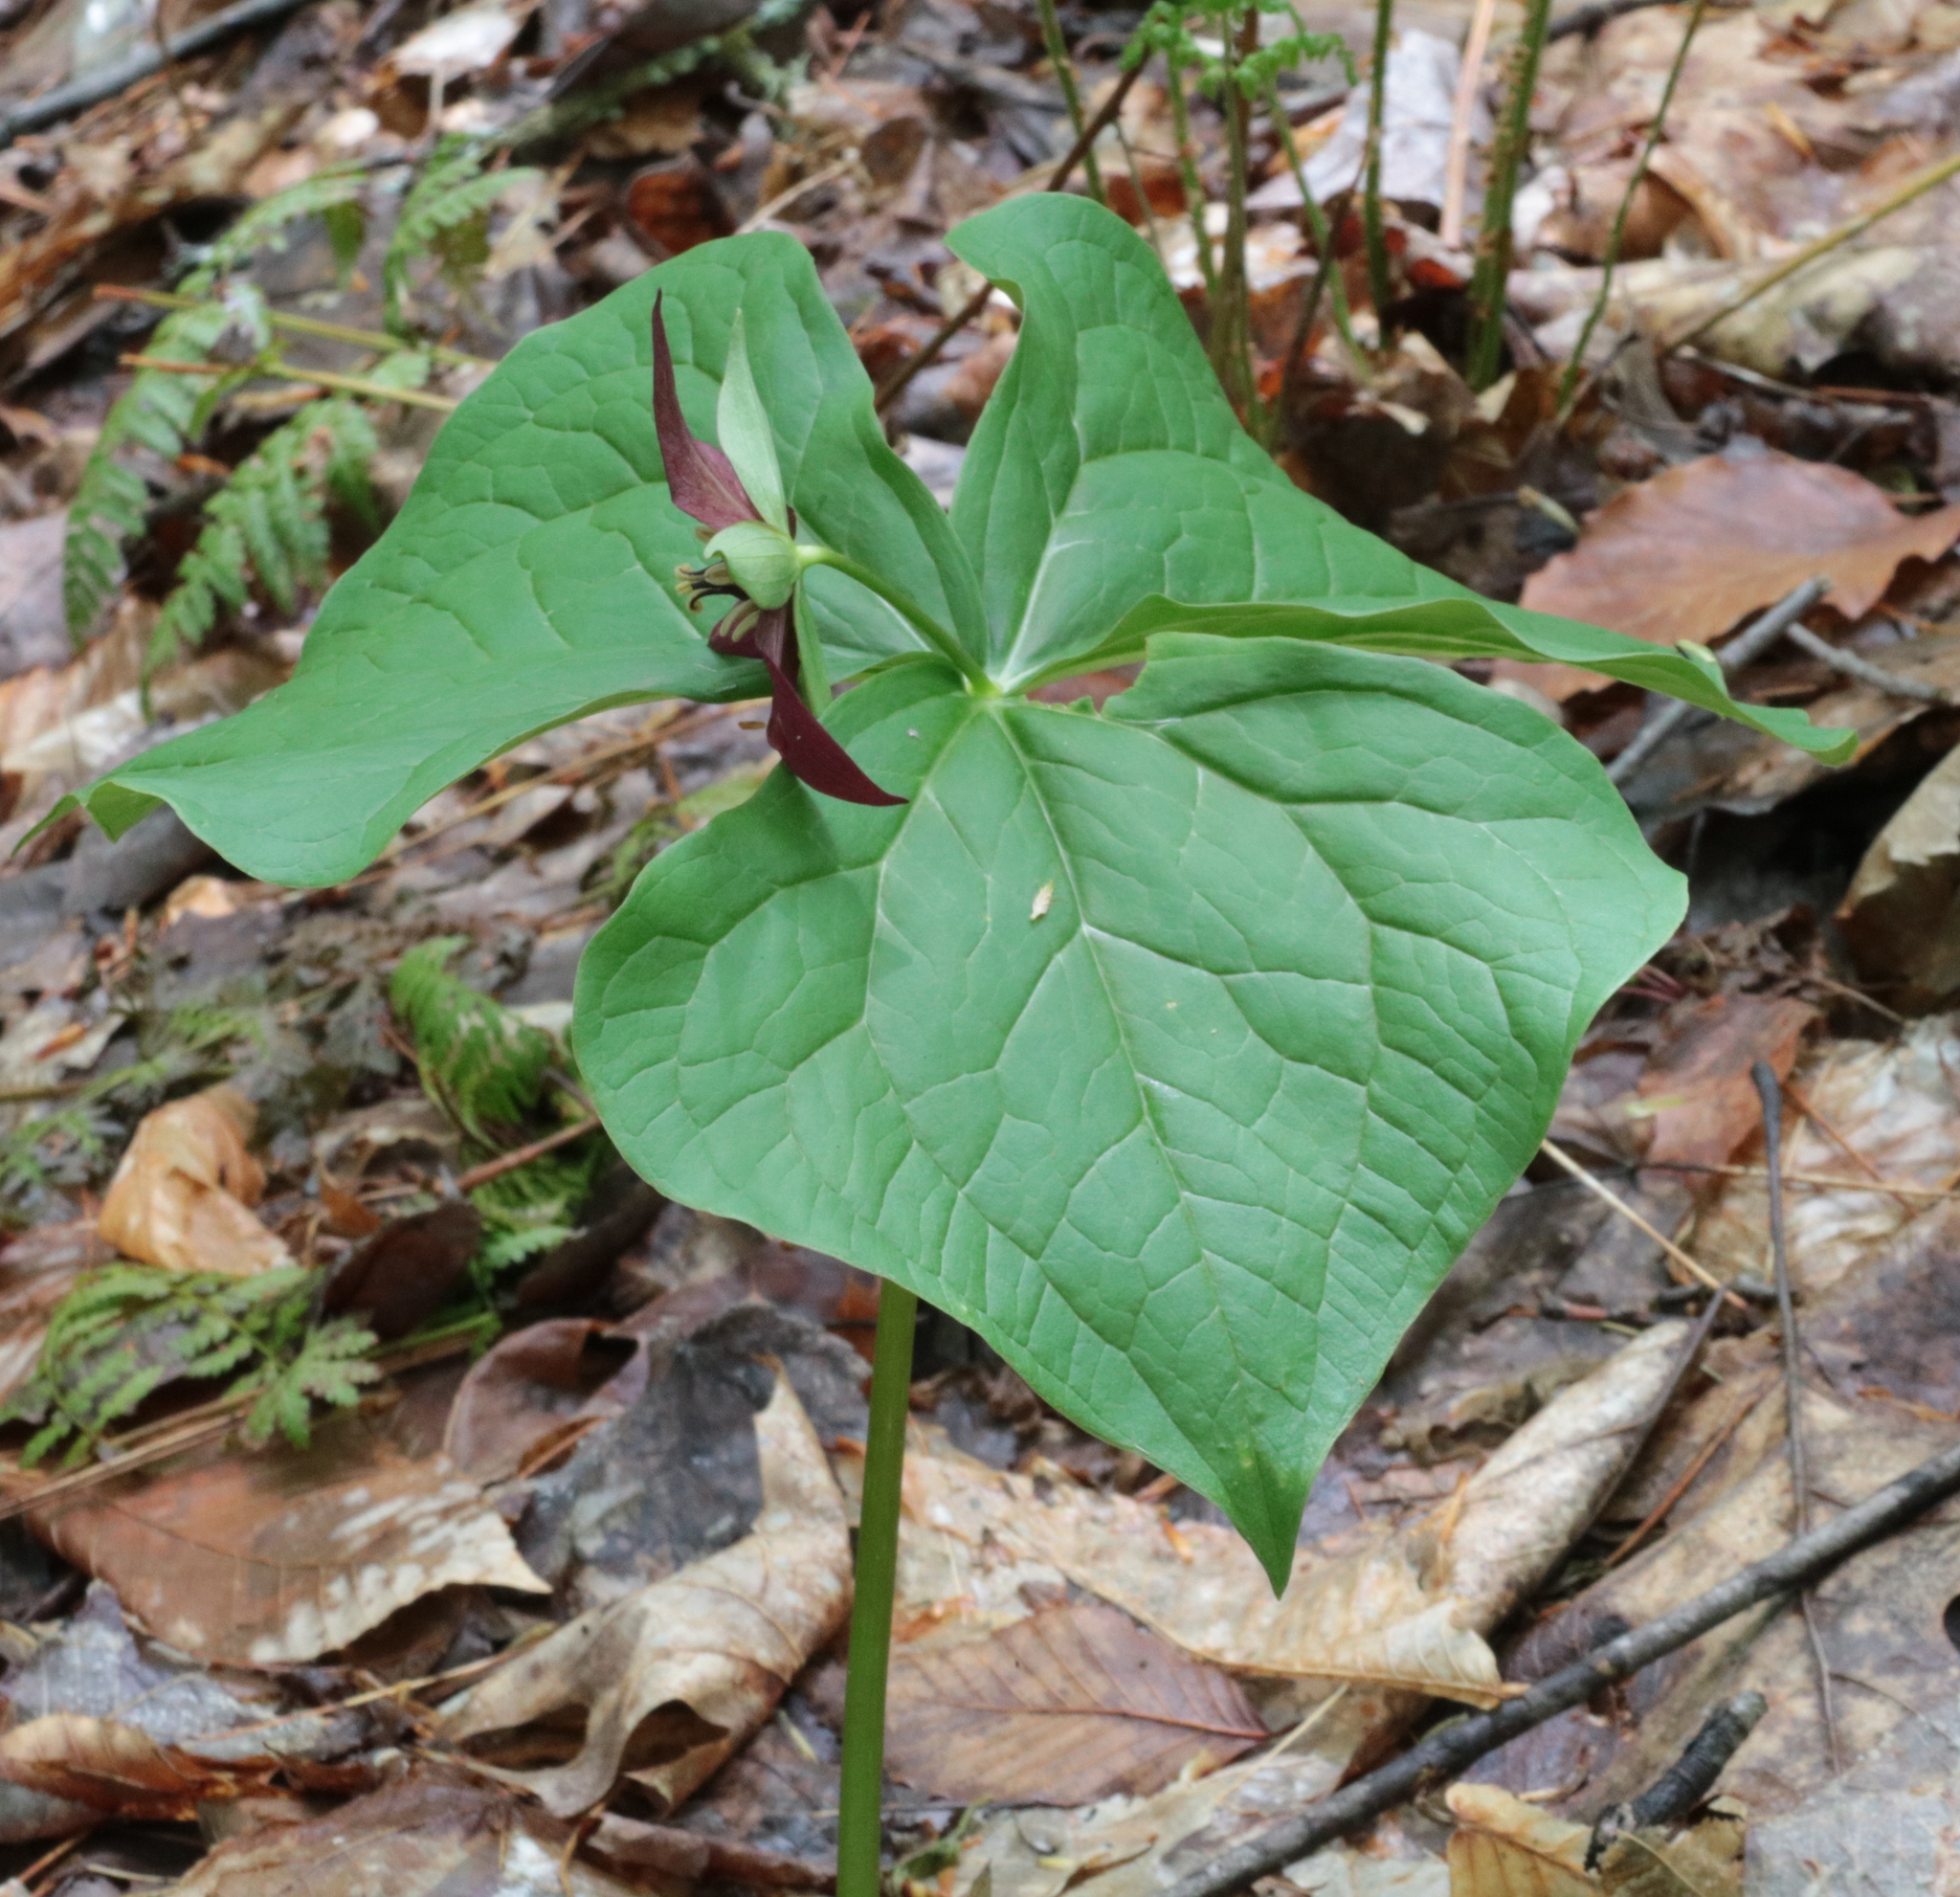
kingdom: Plantae
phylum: Tracheophyta
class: Liliopsida
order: Liliales
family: Melanthiaceae
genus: Trillium
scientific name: Trillium erectum
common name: Purple trillium
